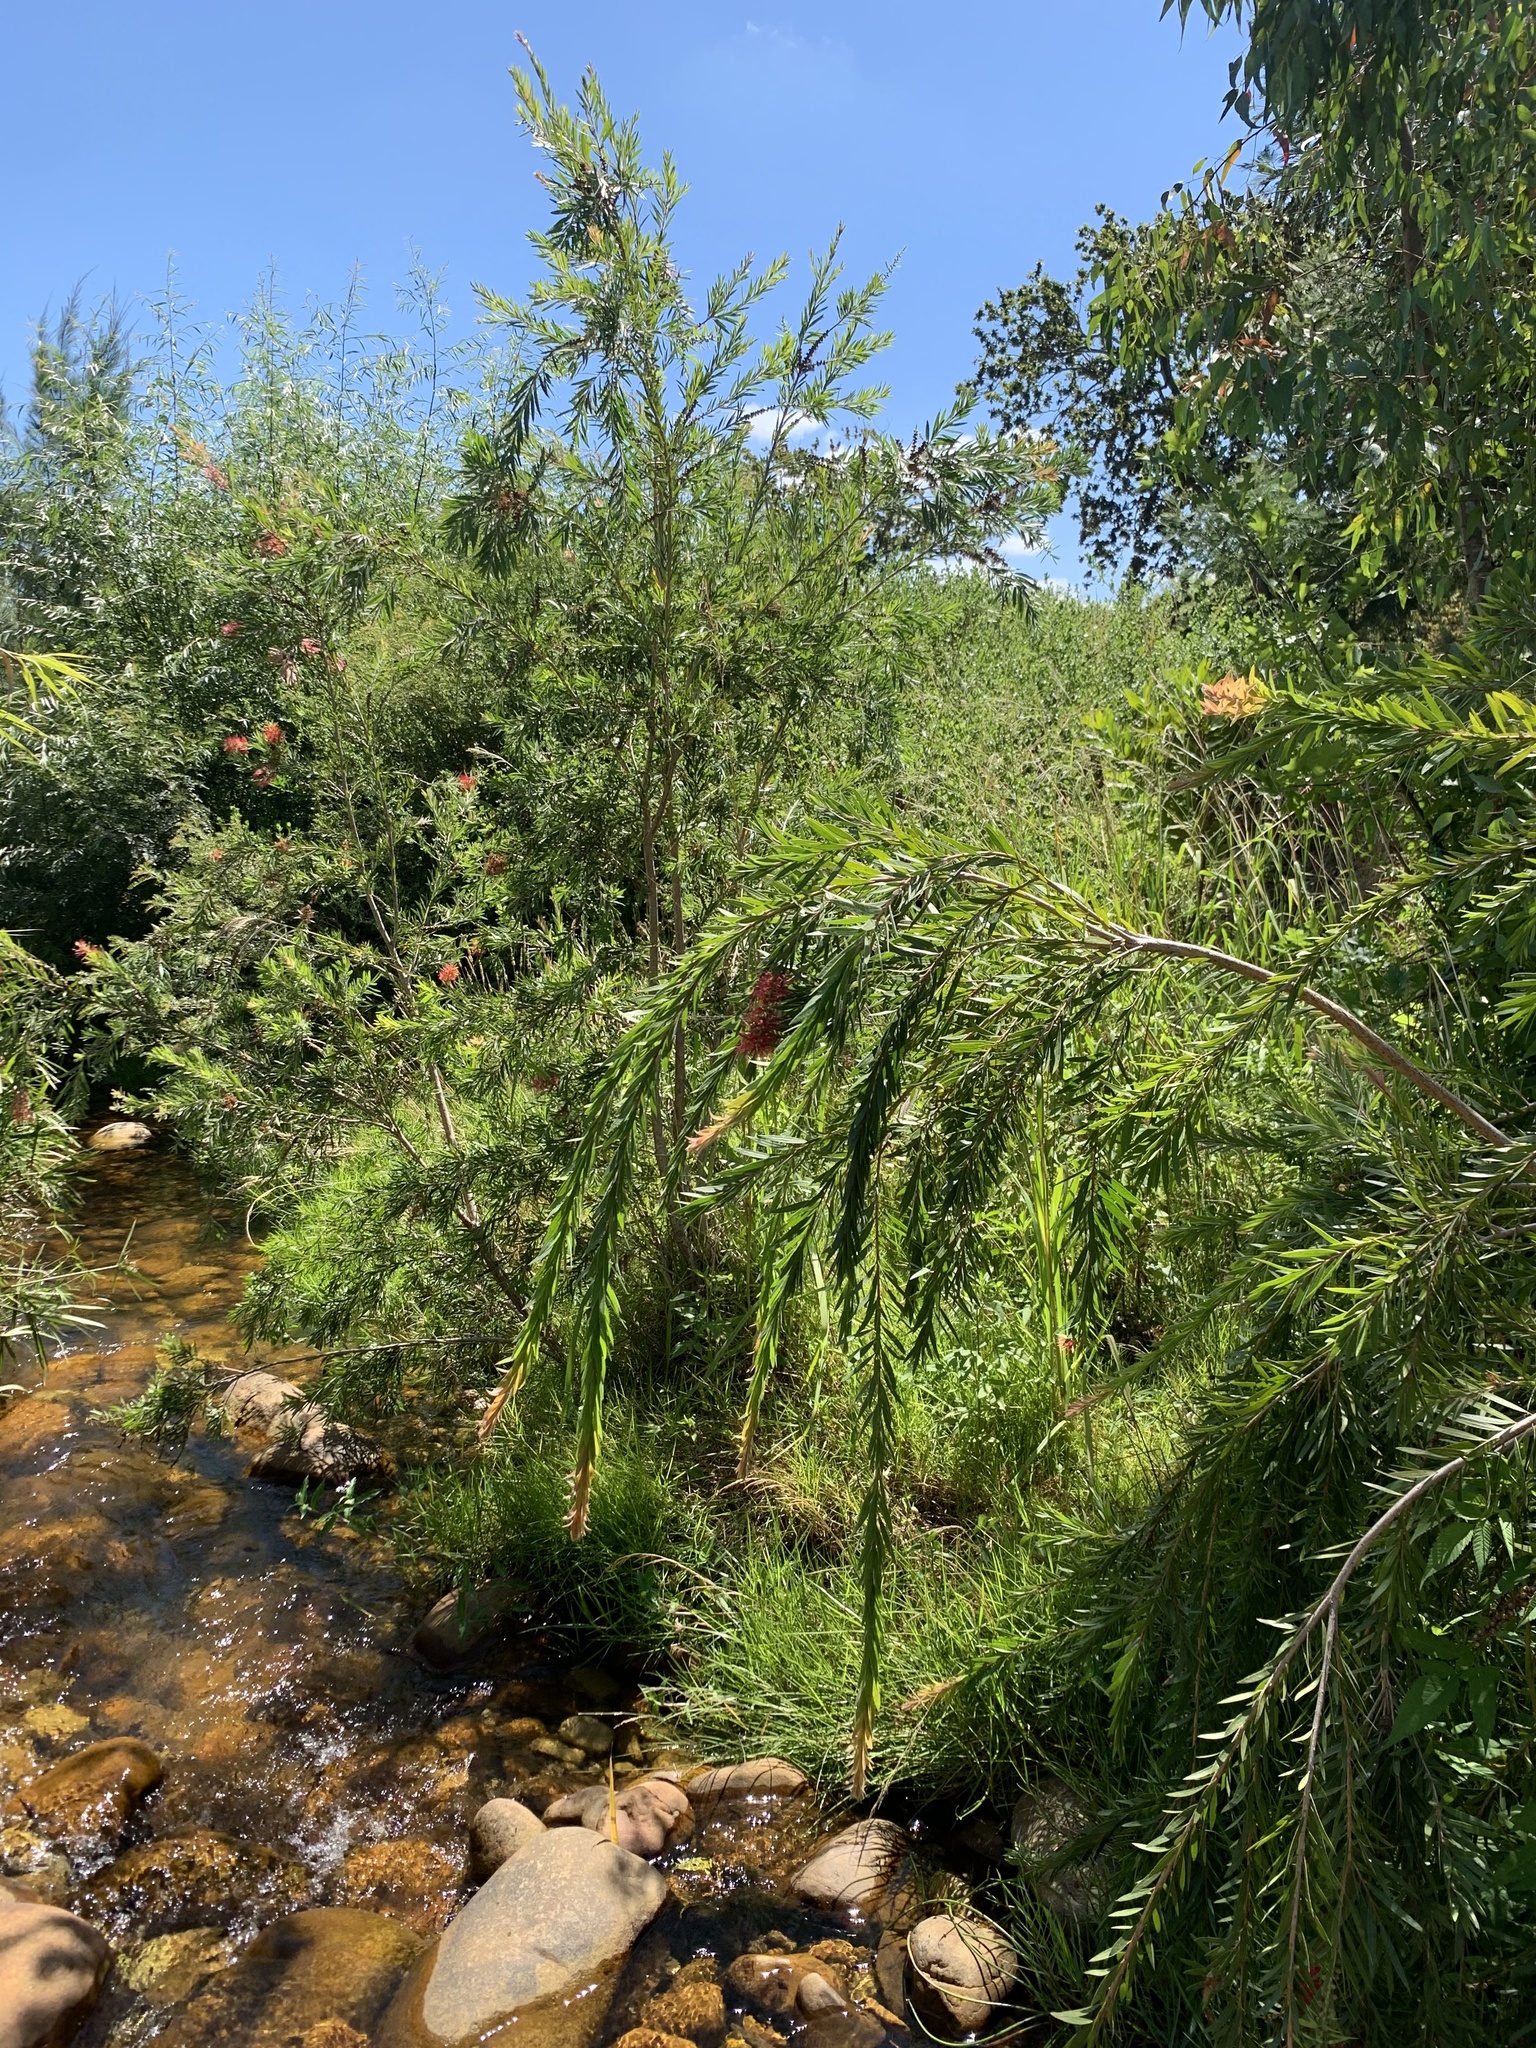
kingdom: Plantae
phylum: Tracheophyta
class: Magnoliopsida
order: Myrtales
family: Myrtaceae
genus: Callistemon
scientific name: Callistemon viminalis
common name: Drooping bottlebrush
